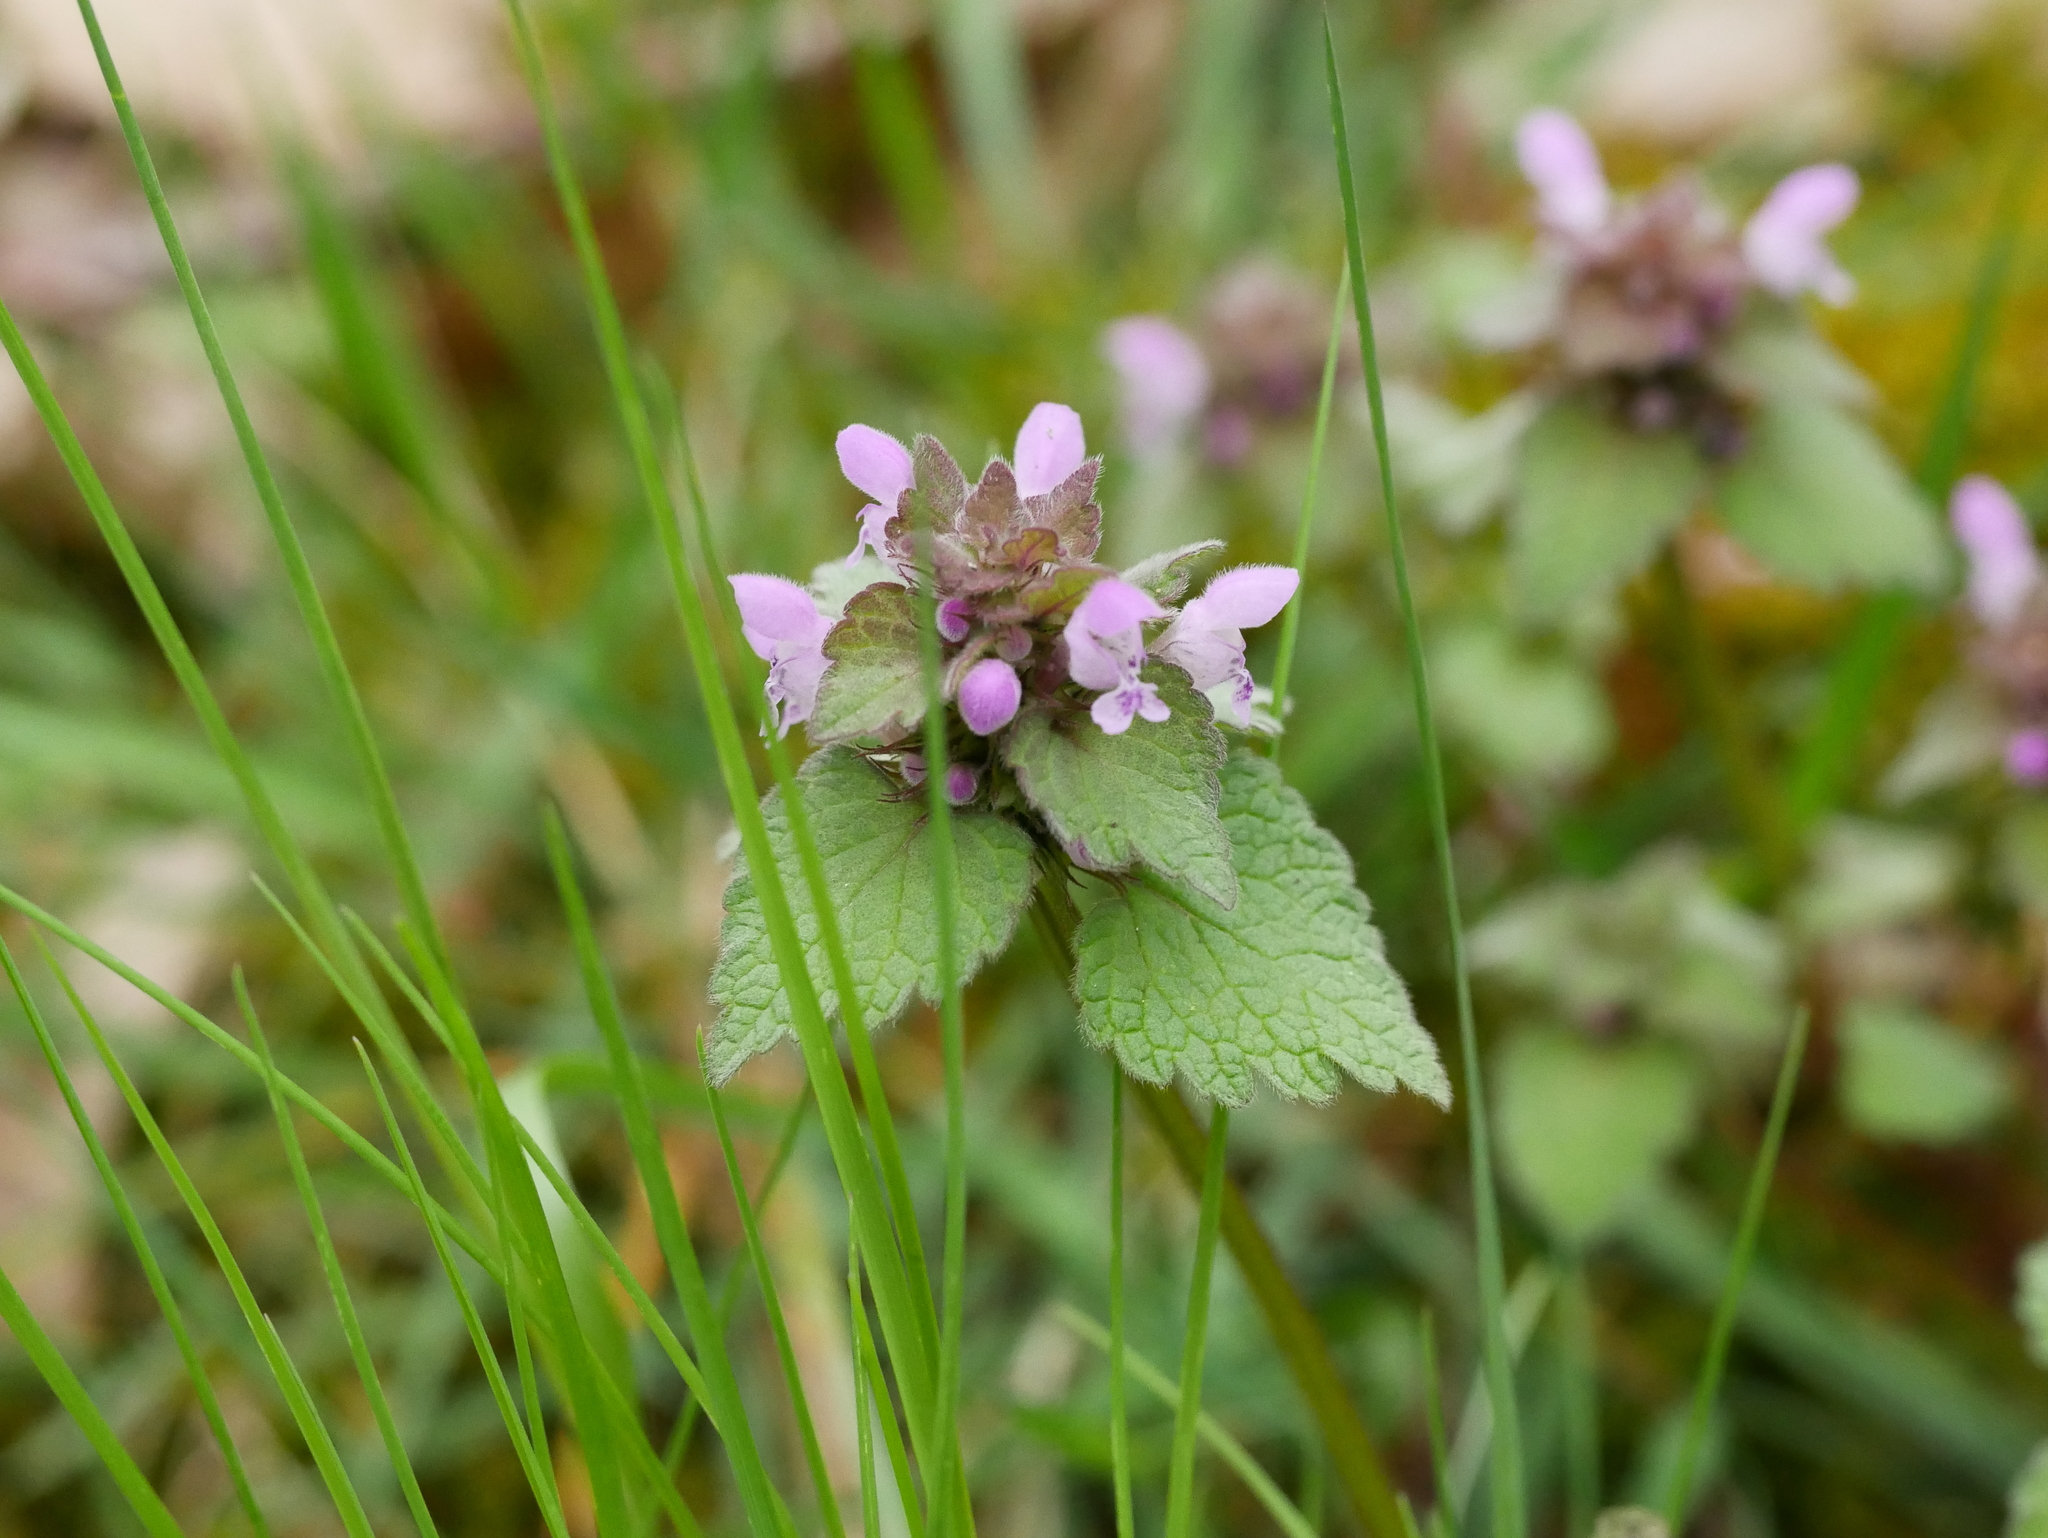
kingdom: Plantae
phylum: Tracheophyta
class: Magnoliopsida
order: Lamiales
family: Lamiaceae
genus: Lamium
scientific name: Lamium purpureum
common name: Red dead-nettle
